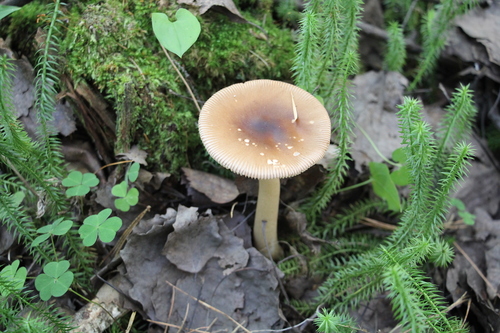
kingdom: Fungi
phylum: Basidiomycota
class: Agaricomycetes
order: Agaricales
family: Amanitaceae
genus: Amanita
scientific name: Amanita fulva
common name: Tawny grisette
